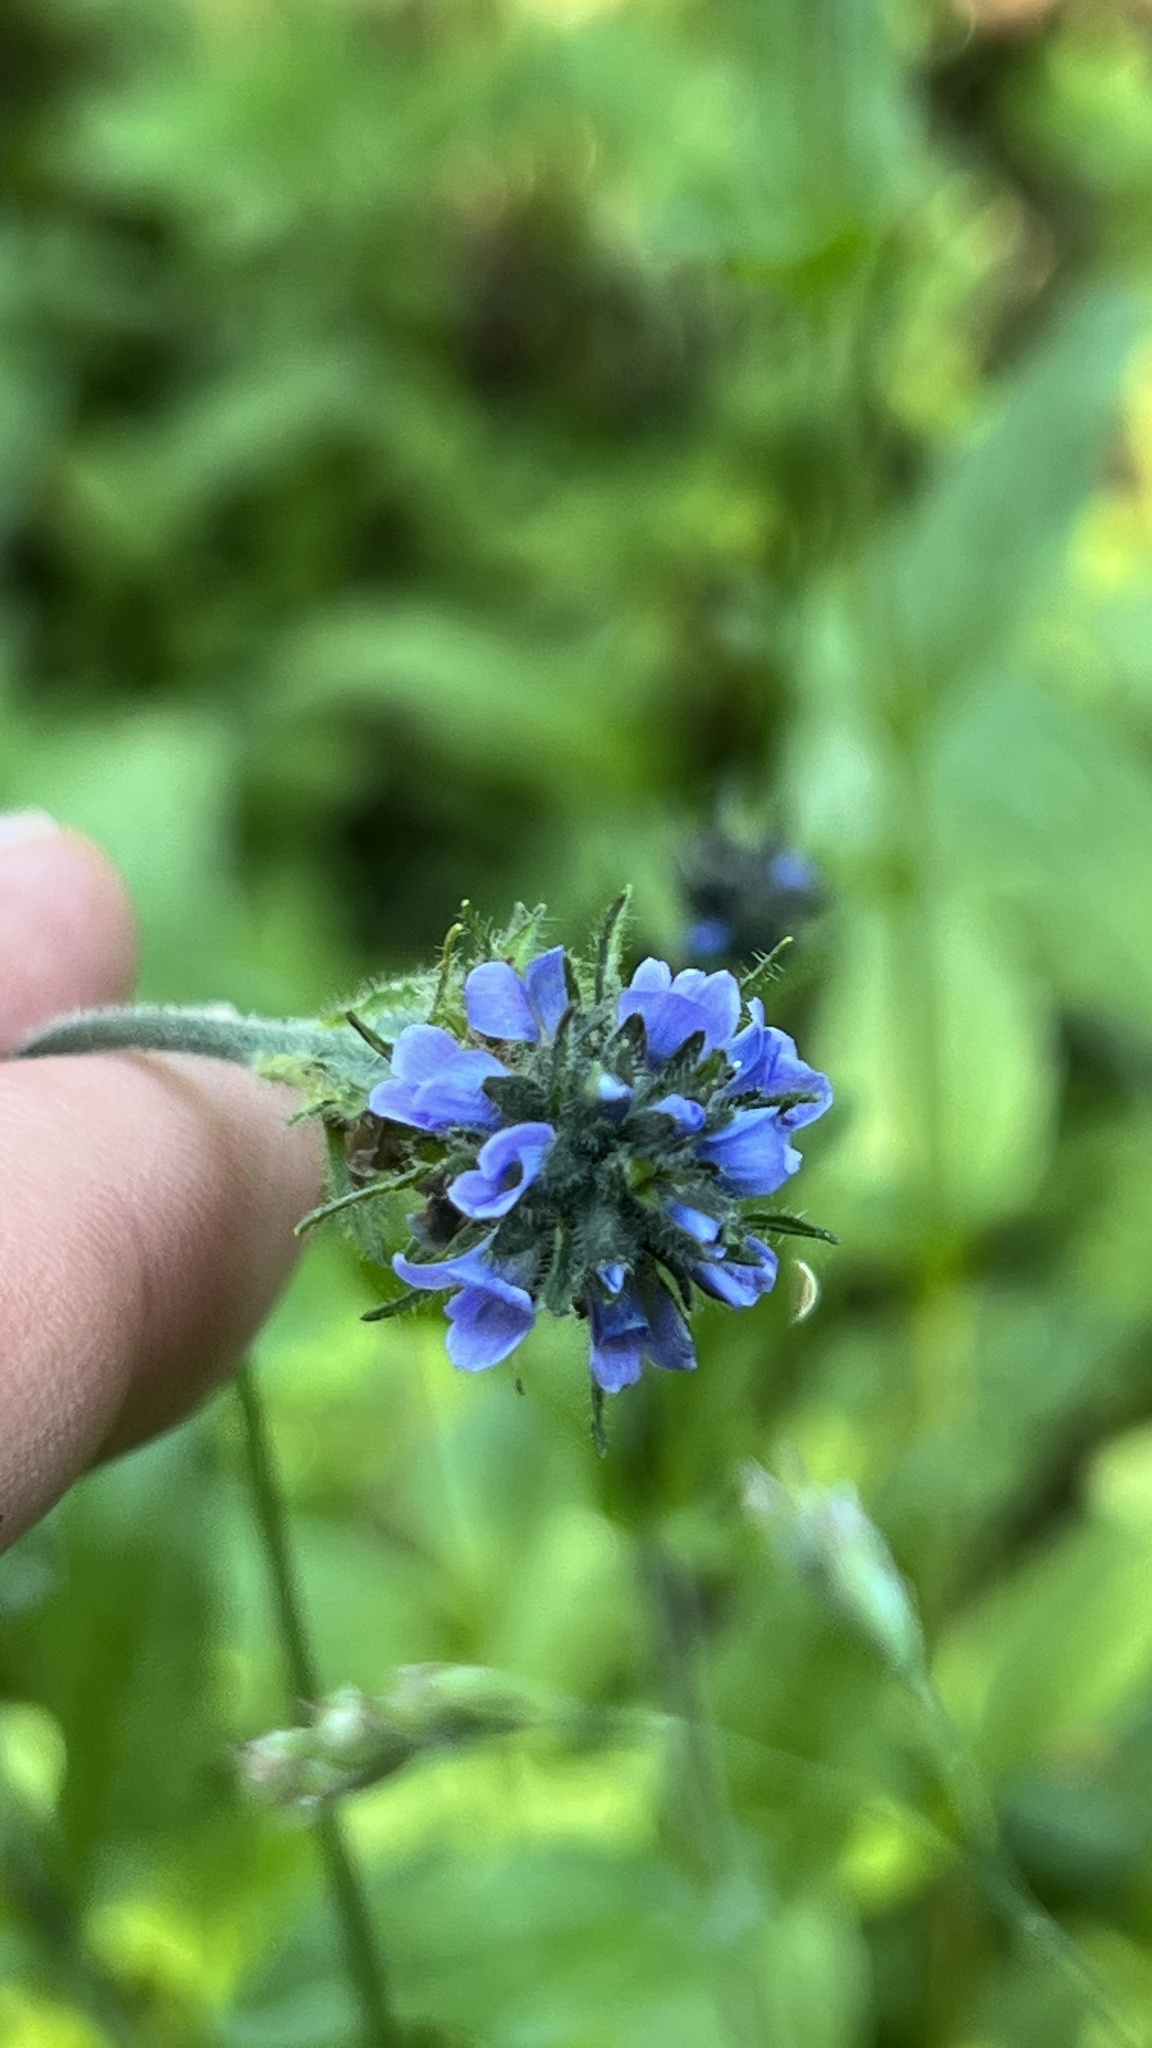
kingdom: Plantae
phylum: Tracheophyta
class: Magnoliopsida
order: Lamiales
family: Plantaginaceae
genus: Veronica
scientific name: Veronica wormskjoldii
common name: American alpine speedwell
